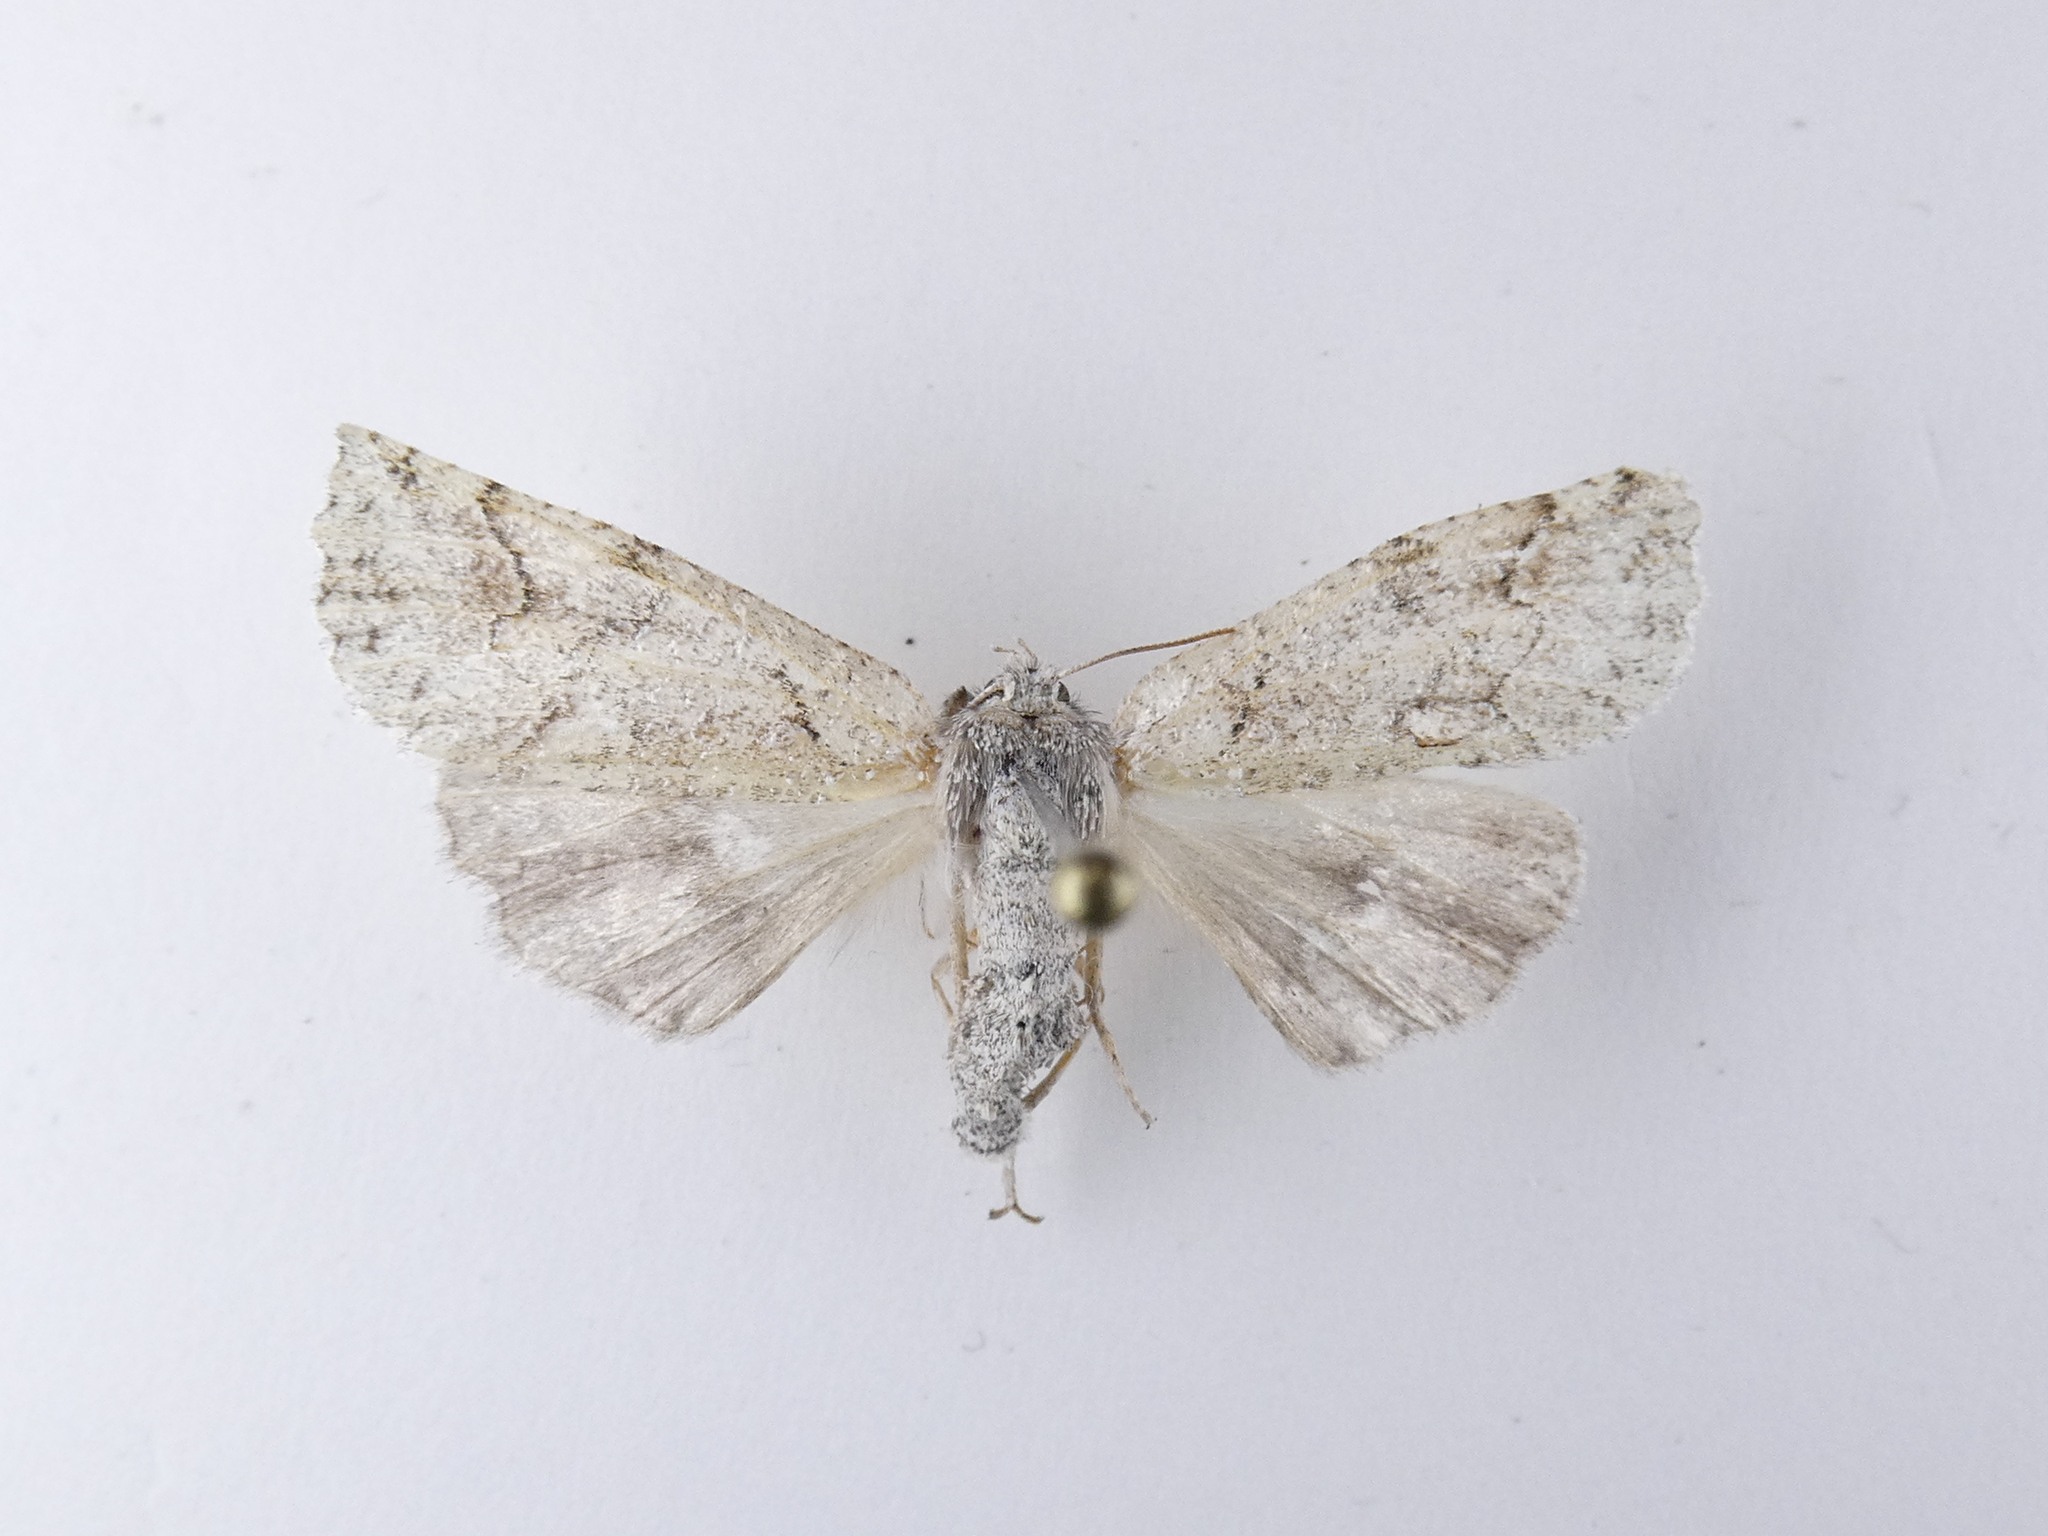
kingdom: Animalia
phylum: Arthropoda
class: Insecta
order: Lepidoptera
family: Geometridae
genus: Declana
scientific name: Declana floccosa
